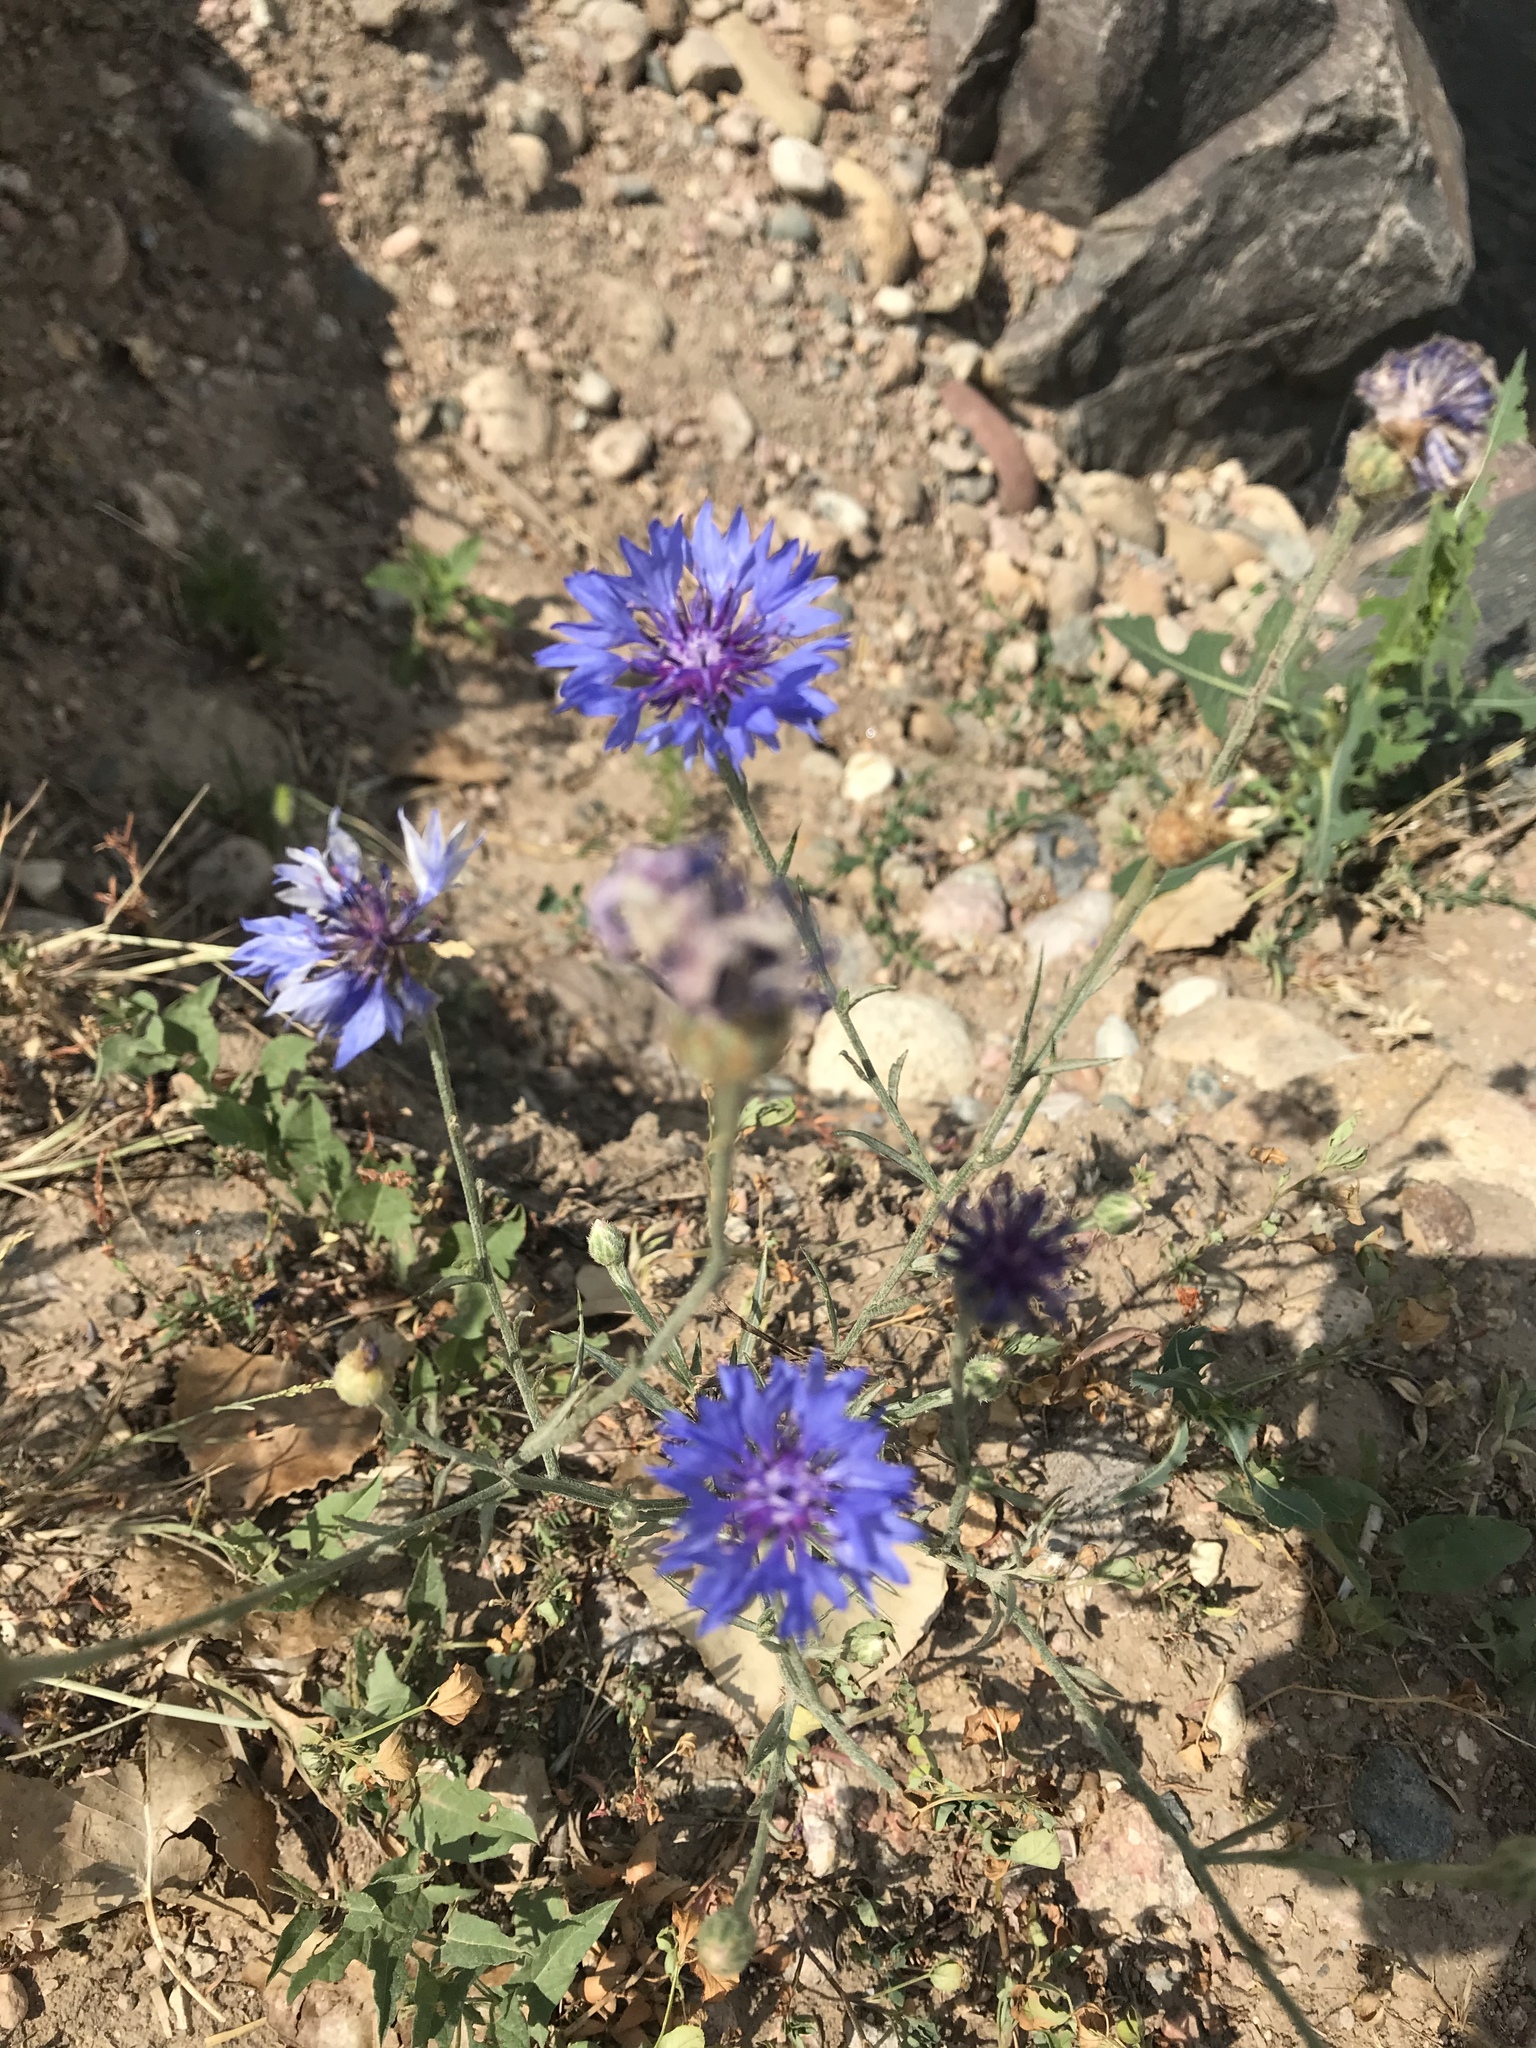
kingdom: Plantae
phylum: Tracheophyta
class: Magnoliopsida
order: Asterales
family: Asteraceae
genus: Centaurea
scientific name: Centaurea cyanus
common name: Cornflower
